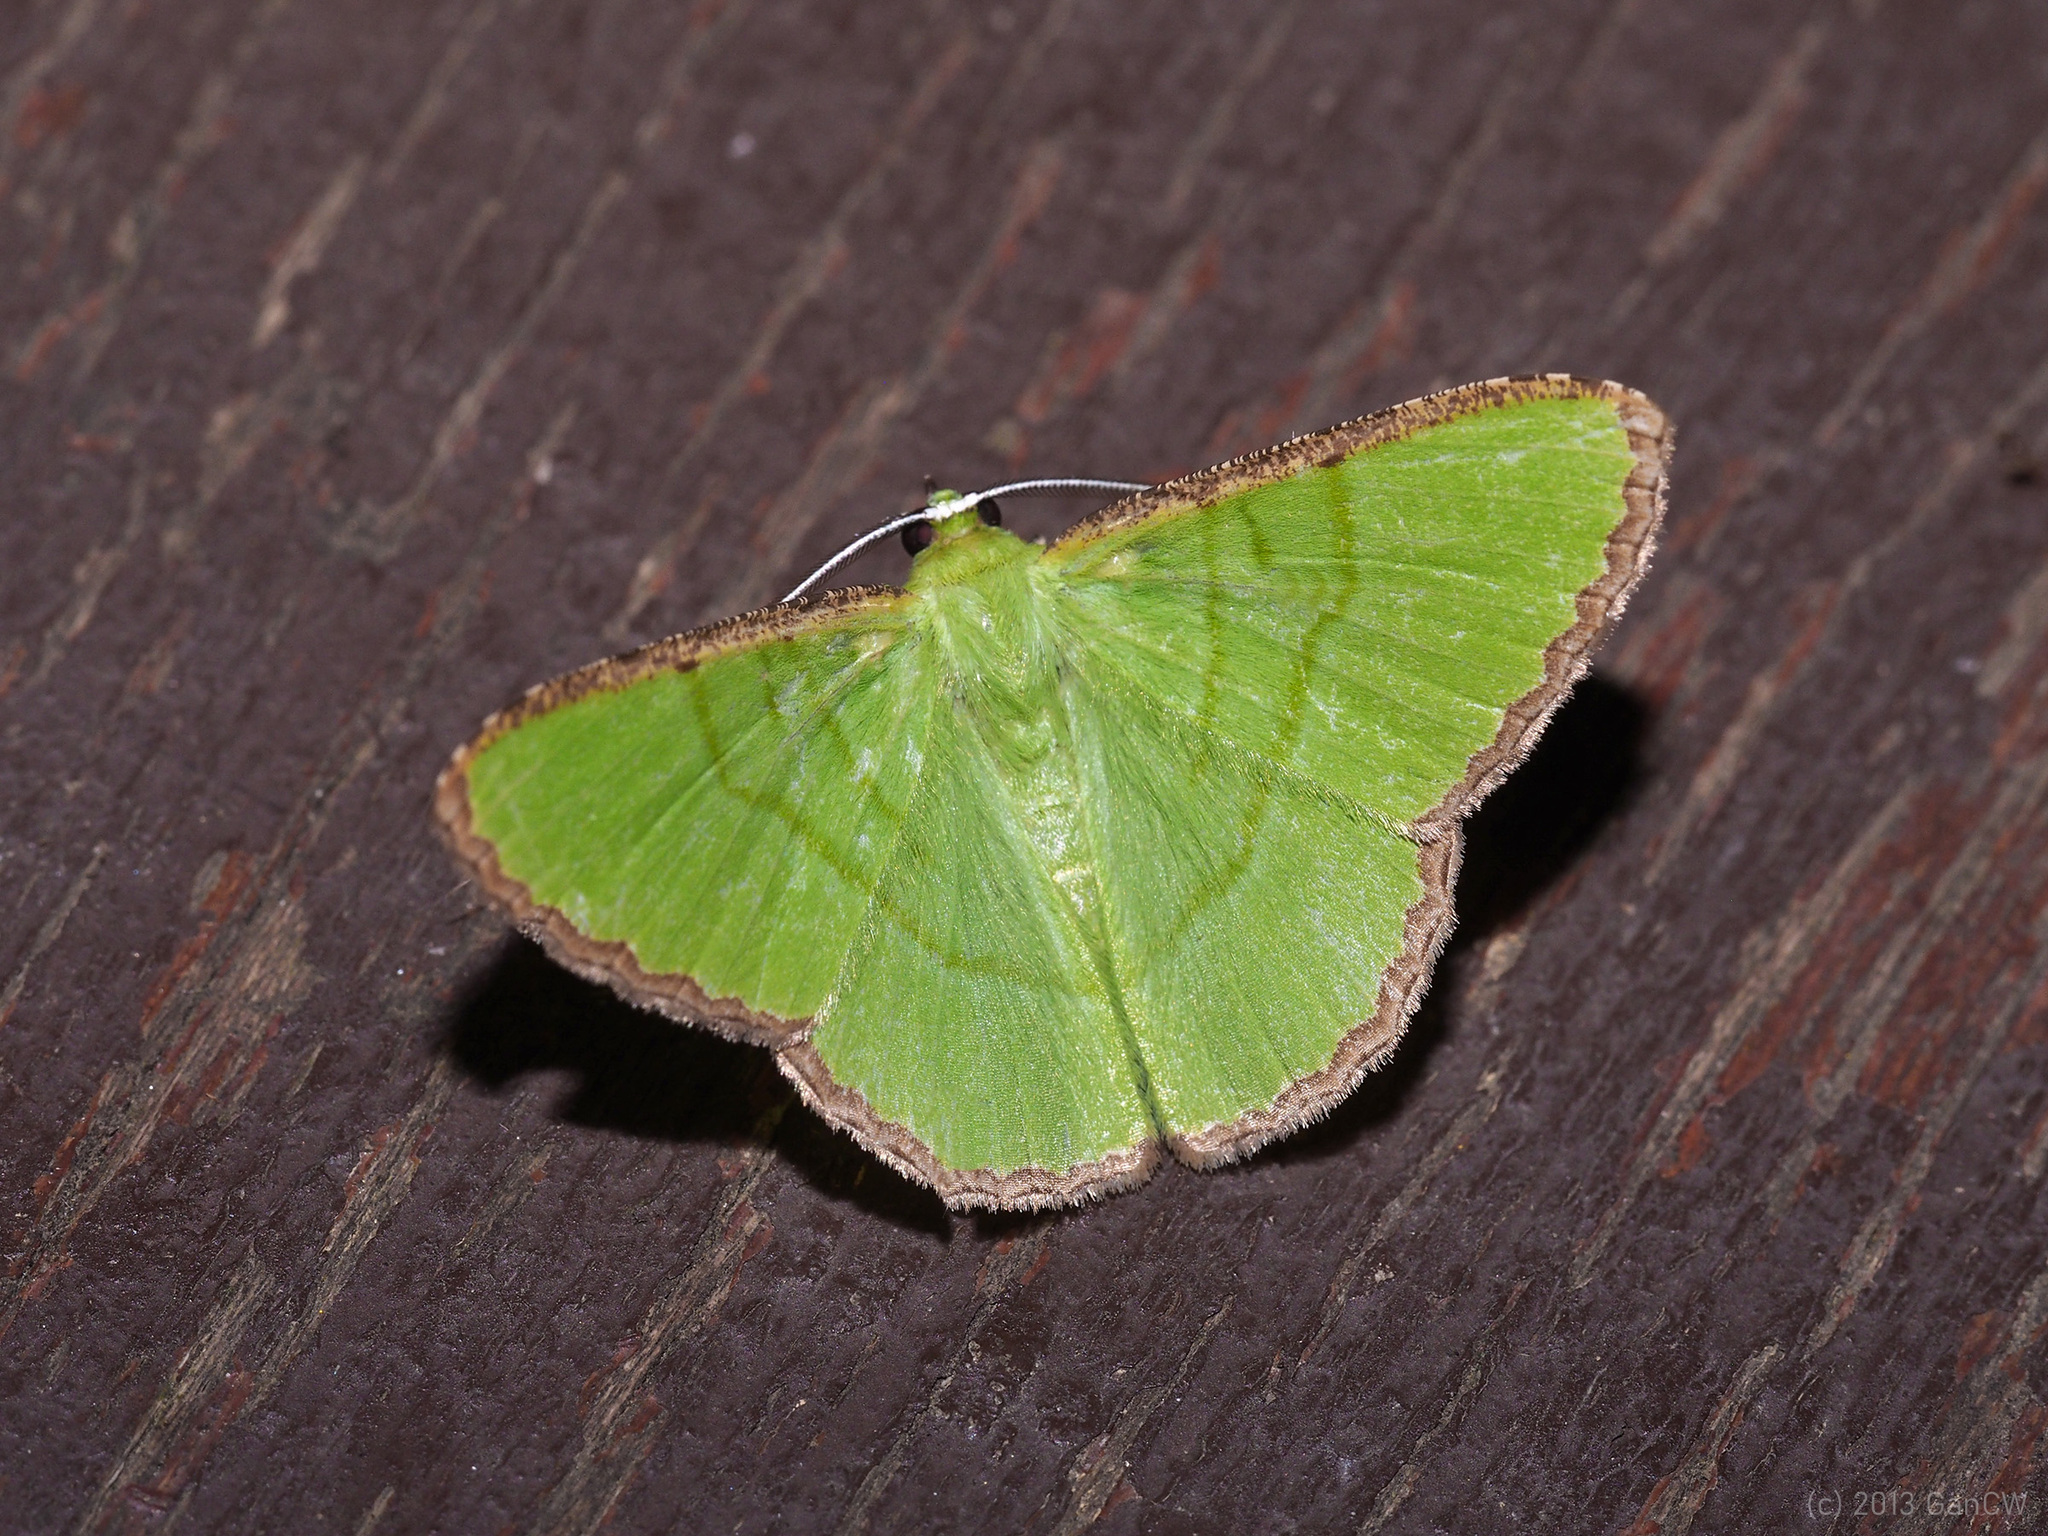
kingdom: Animalia
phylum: Arthropoda
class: Insecta
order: Lepidoptera
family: Geometridae
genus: Ornithospila
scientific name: Ornithospila cincta
